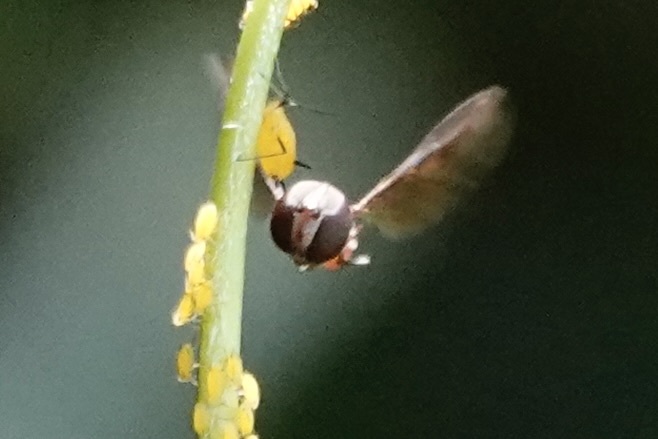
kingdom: Animalia
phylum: Arthropoda
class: Insecta
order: Diptera
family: Syrphidae
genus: Ocyptamus
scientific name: Ocyptamus fuscipennis
